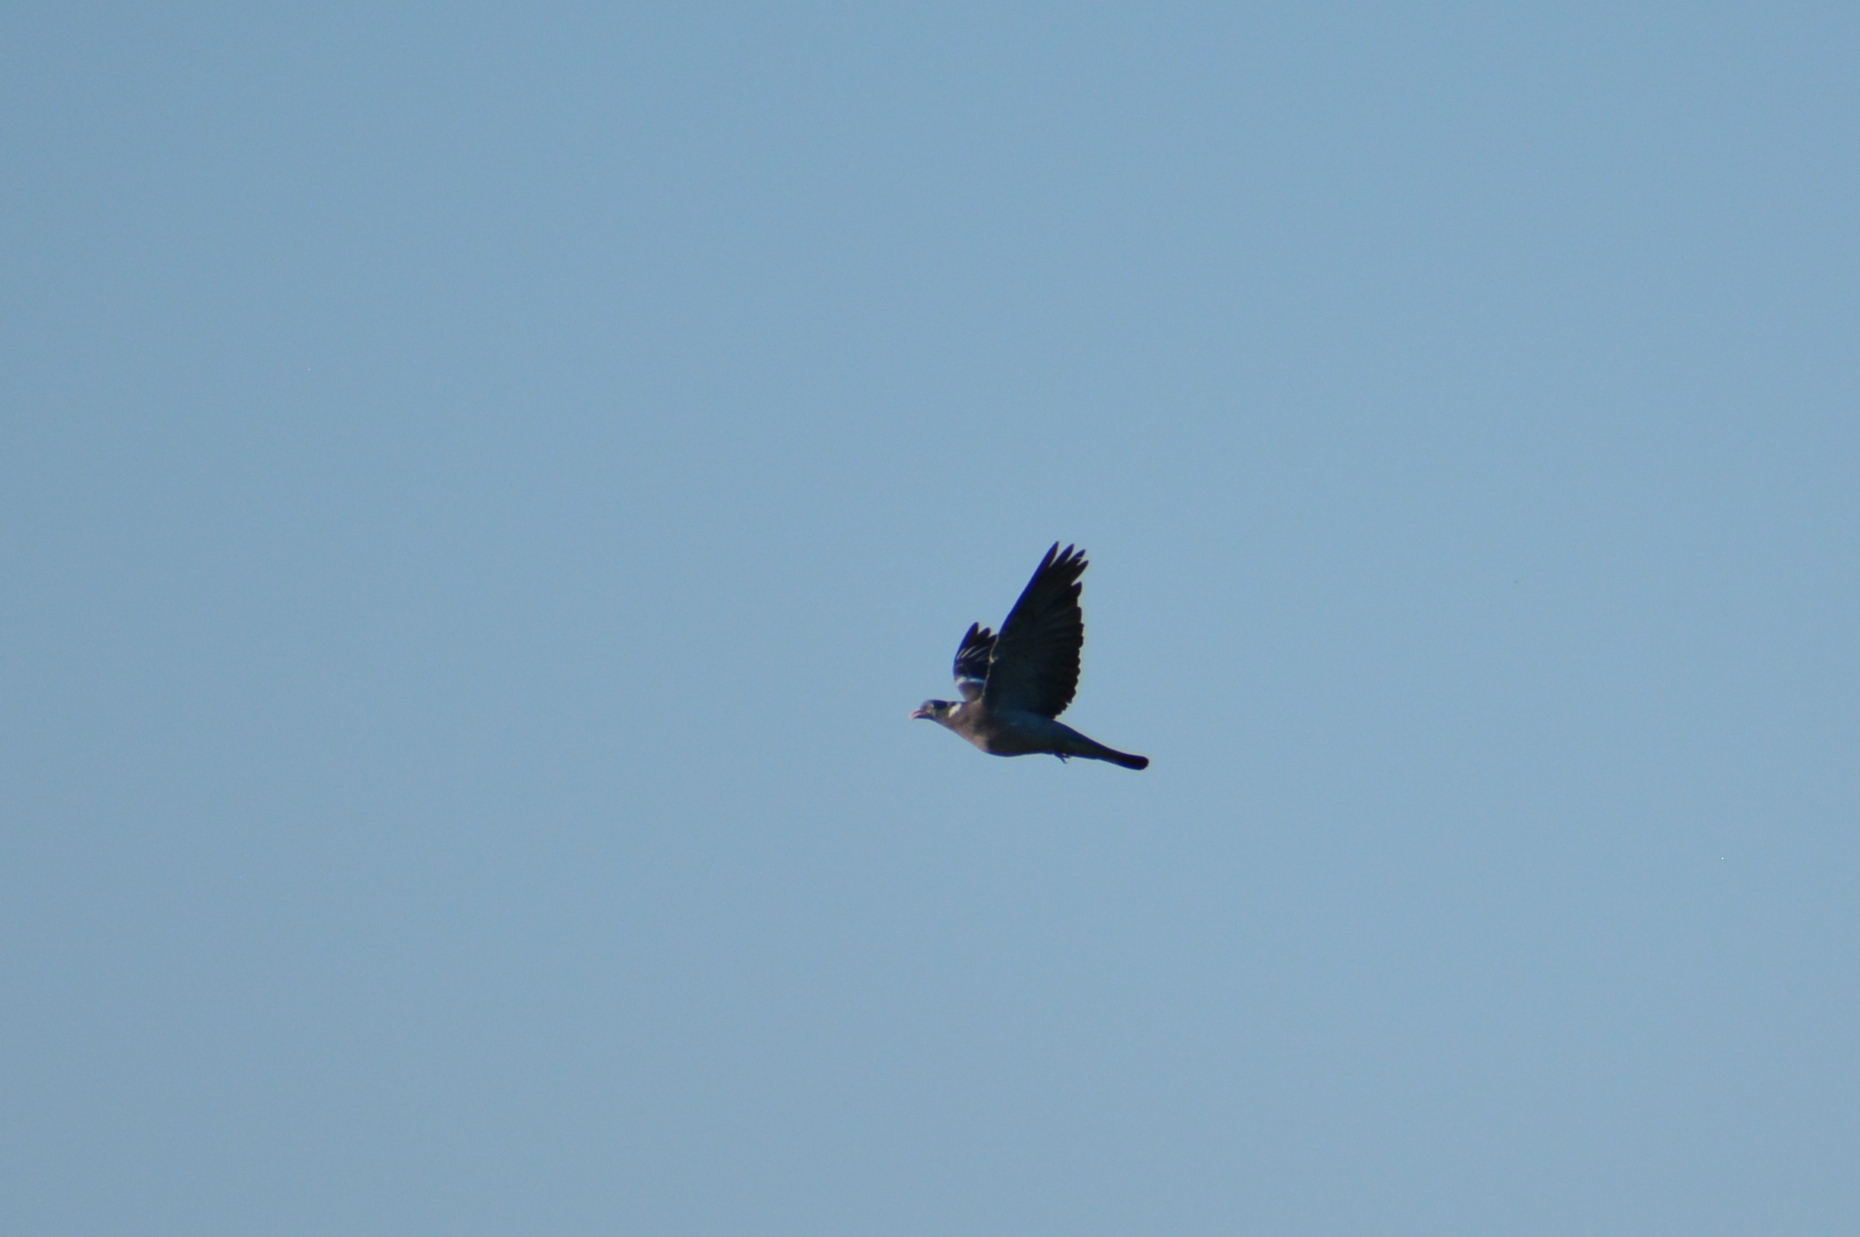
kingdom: Animalia
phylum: Chordata
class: Aves
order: Columbiformes
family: Columbidae
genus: Columba
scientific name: Columba palumbus
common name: Common wood pigeon
